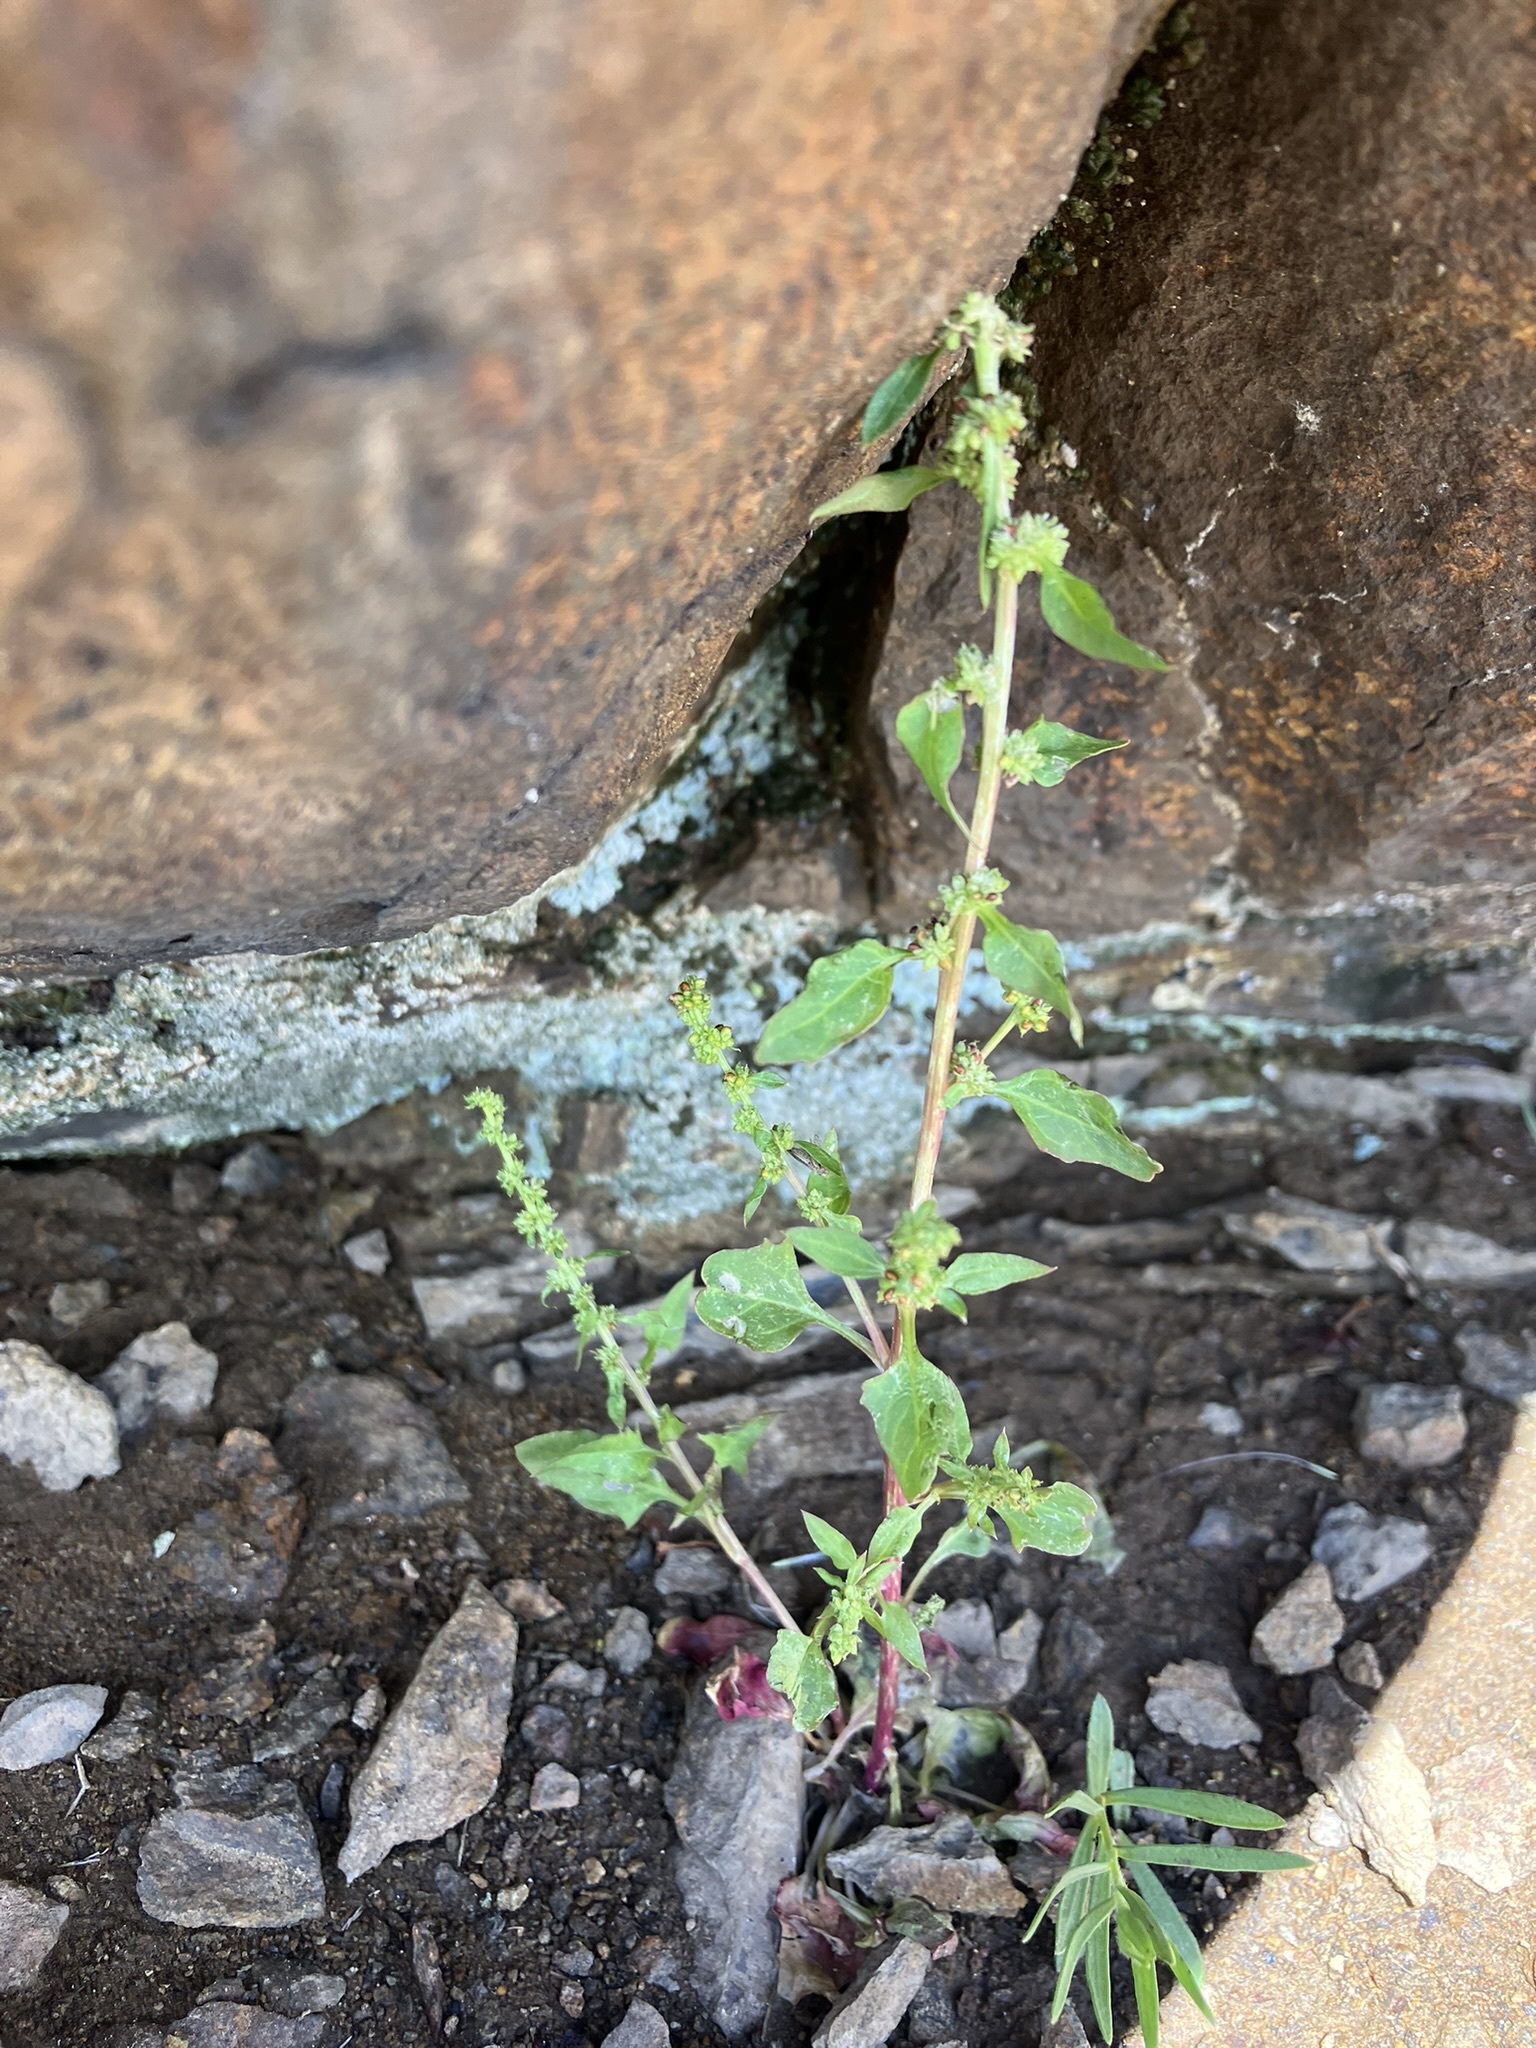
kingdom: Plantae
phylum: Tracheophyta
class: Magnoliopsida
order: Caryophyllales
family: Amaranthaceae
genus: Blitum
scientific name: Blitum capitatum
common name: Strawberry-blight
